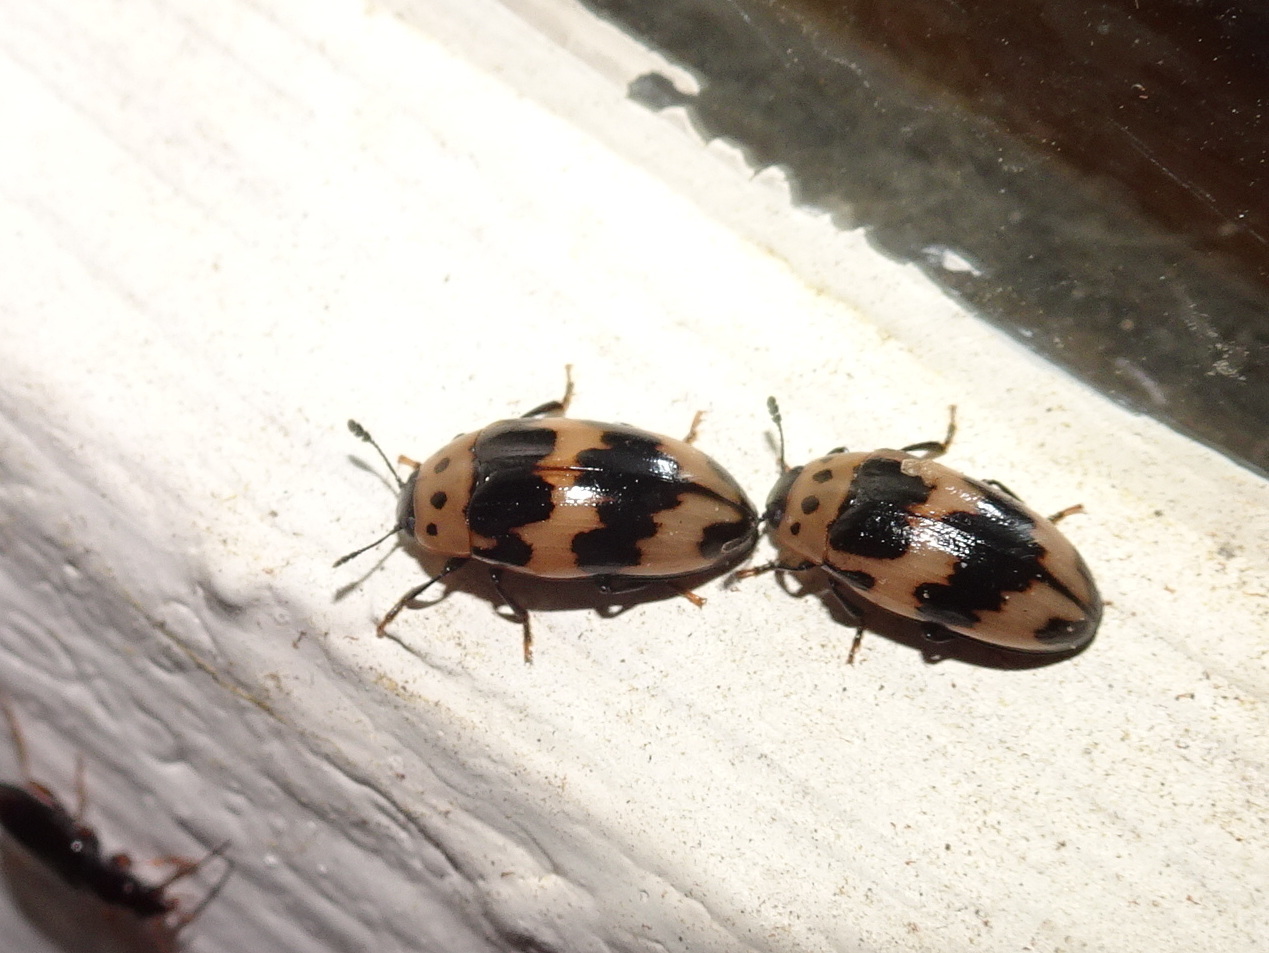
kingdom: Animalia
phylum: Arthropoda
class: Insecta
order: Coleoptera
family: Erotylidae
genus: Ischyrus
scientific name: Ischyrus quadripunctatus
